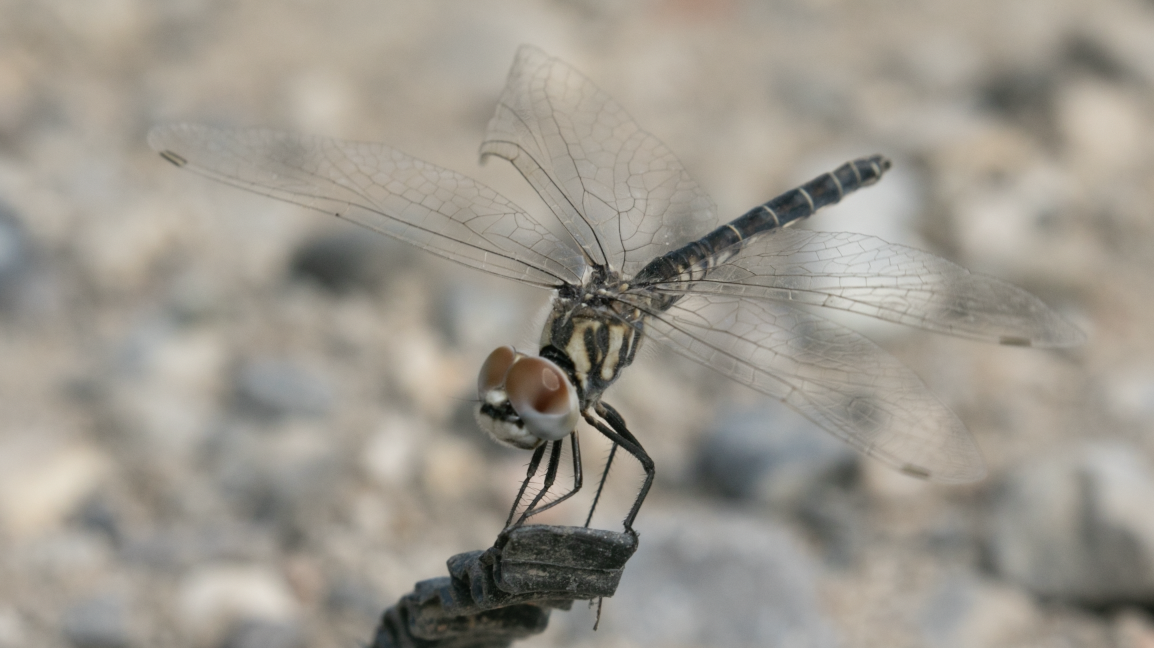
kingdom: Animalia
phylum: Arthropoda
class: Insecta
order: Odonata
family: Libellulidae
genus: Selysiothemis
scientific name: Selysiothemis nigra
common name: Black pennant
